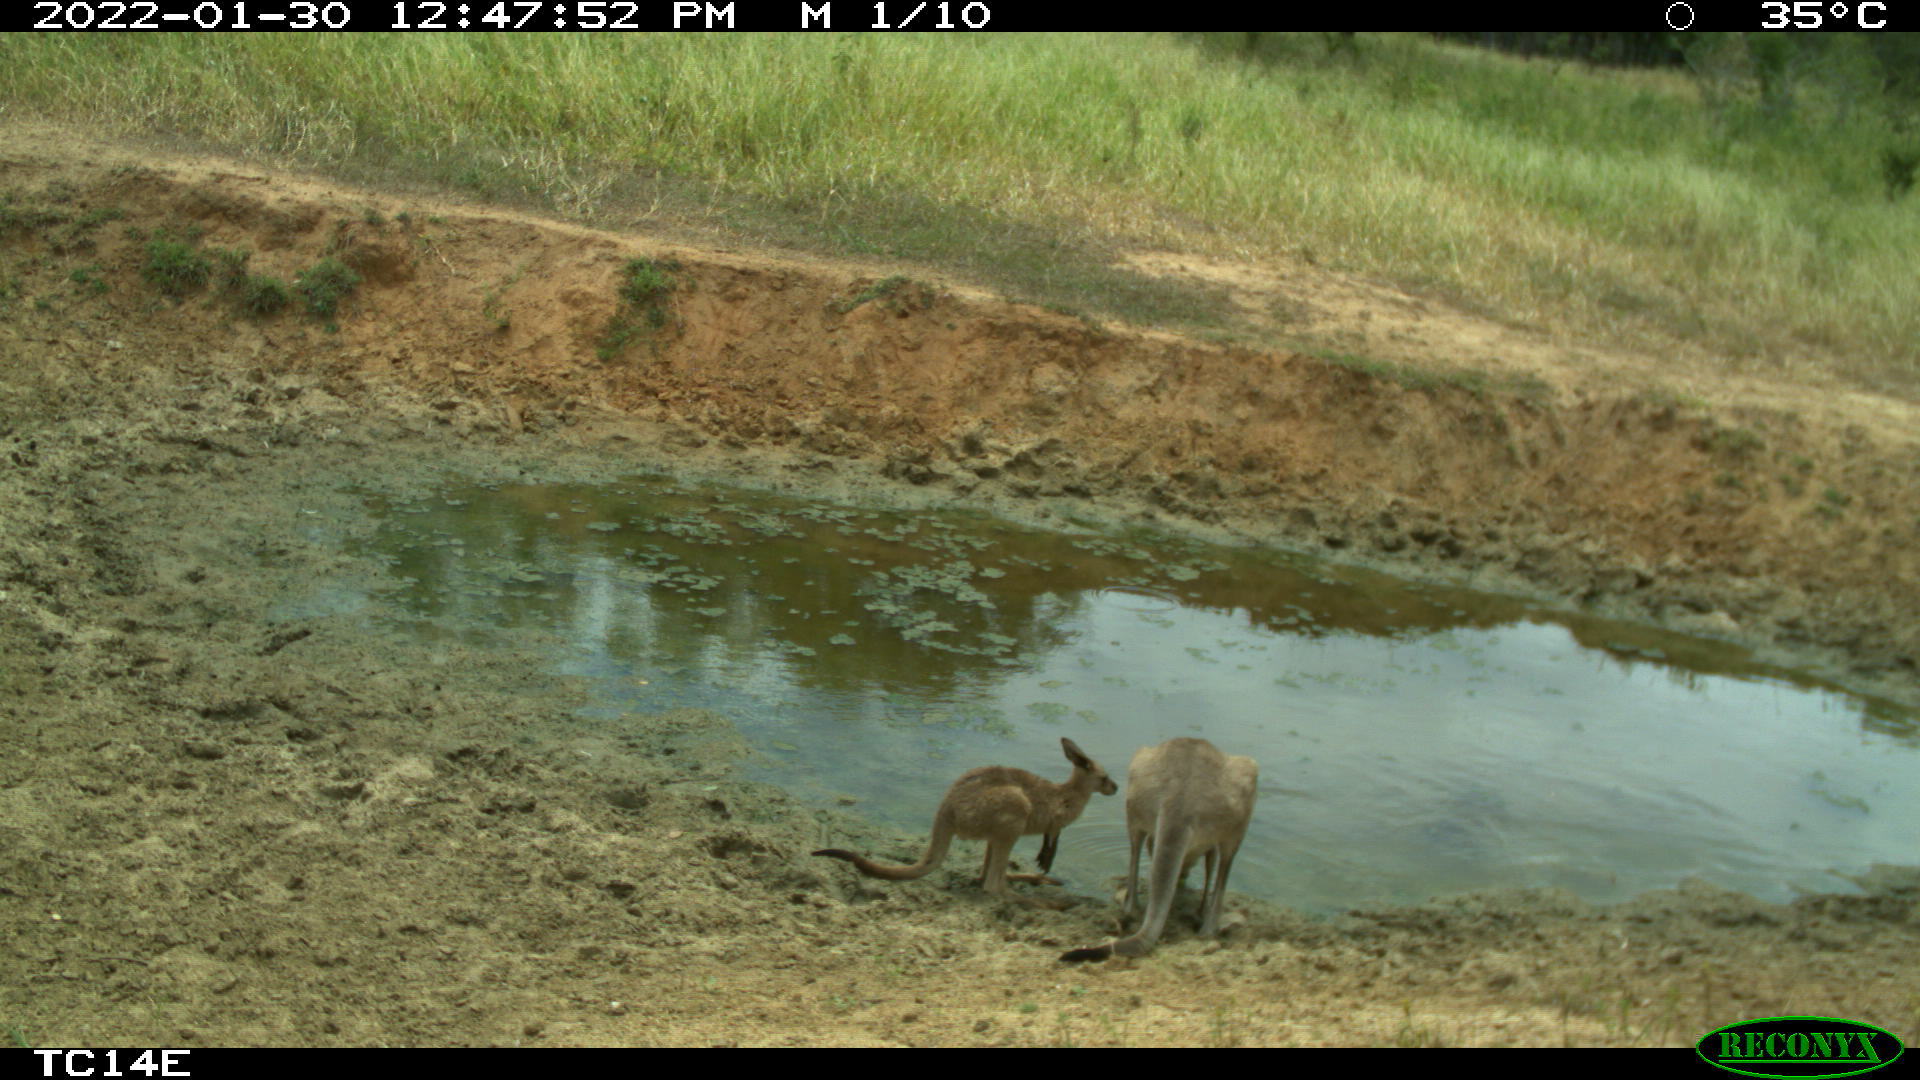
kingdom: Animalia
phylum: Chordata
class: Mammalia
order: Diprotodontia
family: Macropodidae
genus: Macropus
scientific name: Macropus giganteus
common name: Eastern grey kangaroo
